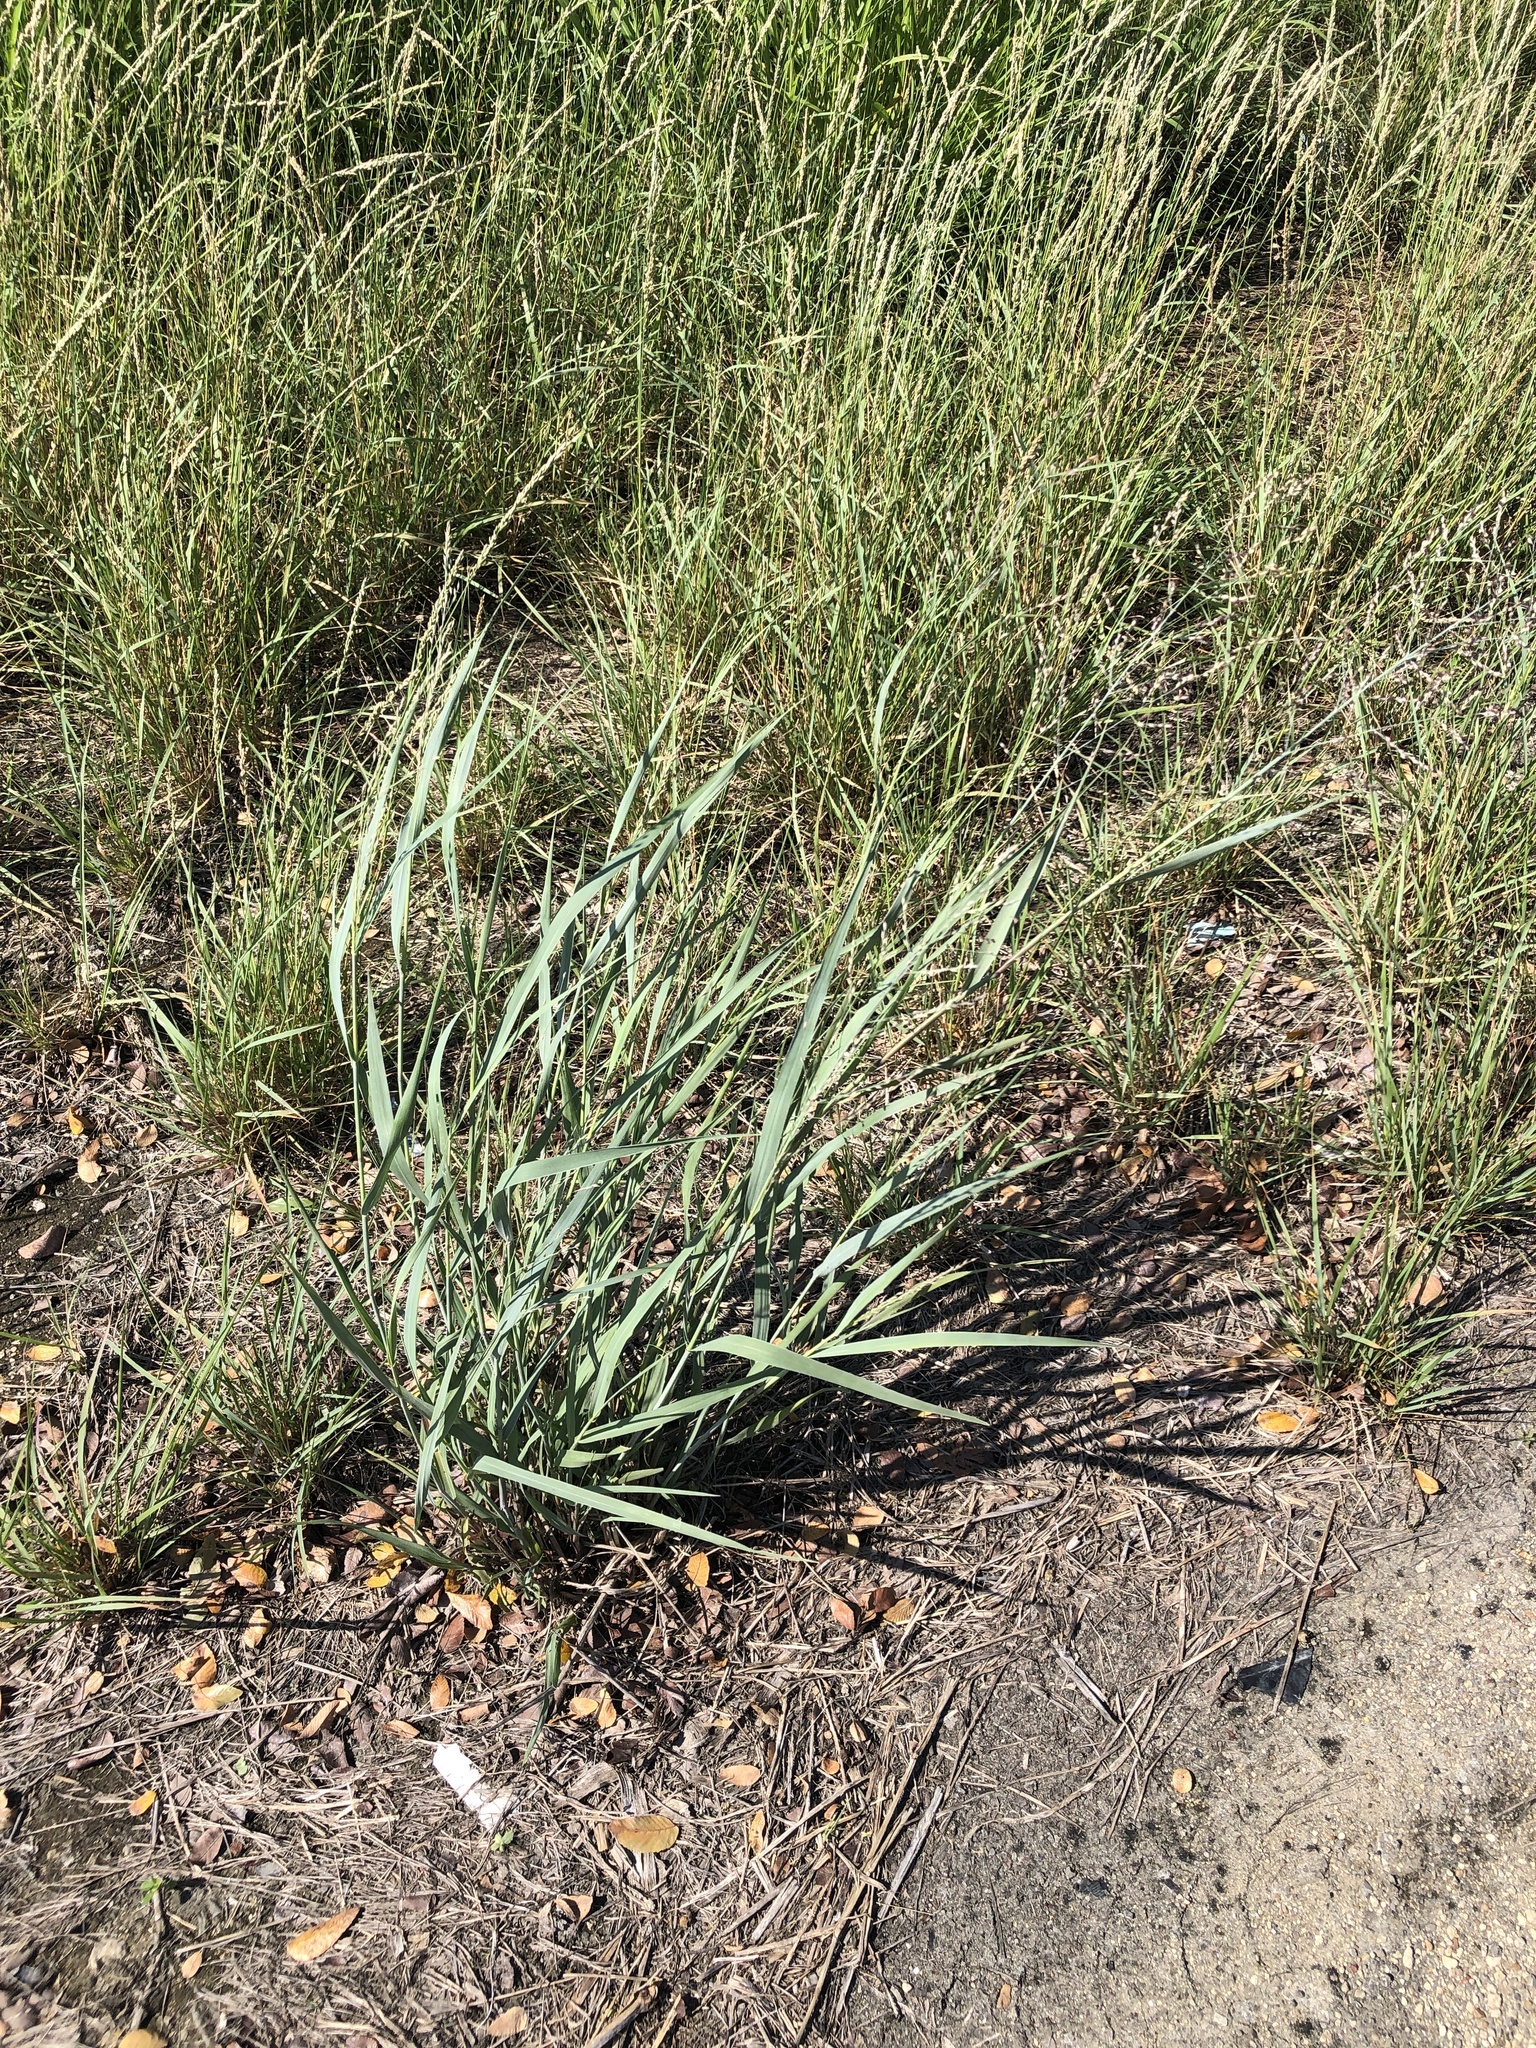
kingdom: Plantae
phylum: Tracheophyta
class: Liliopsida
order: Poales
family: Poaceae
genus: Panicum
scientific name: Panicum virgatum
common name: Switchgrass
